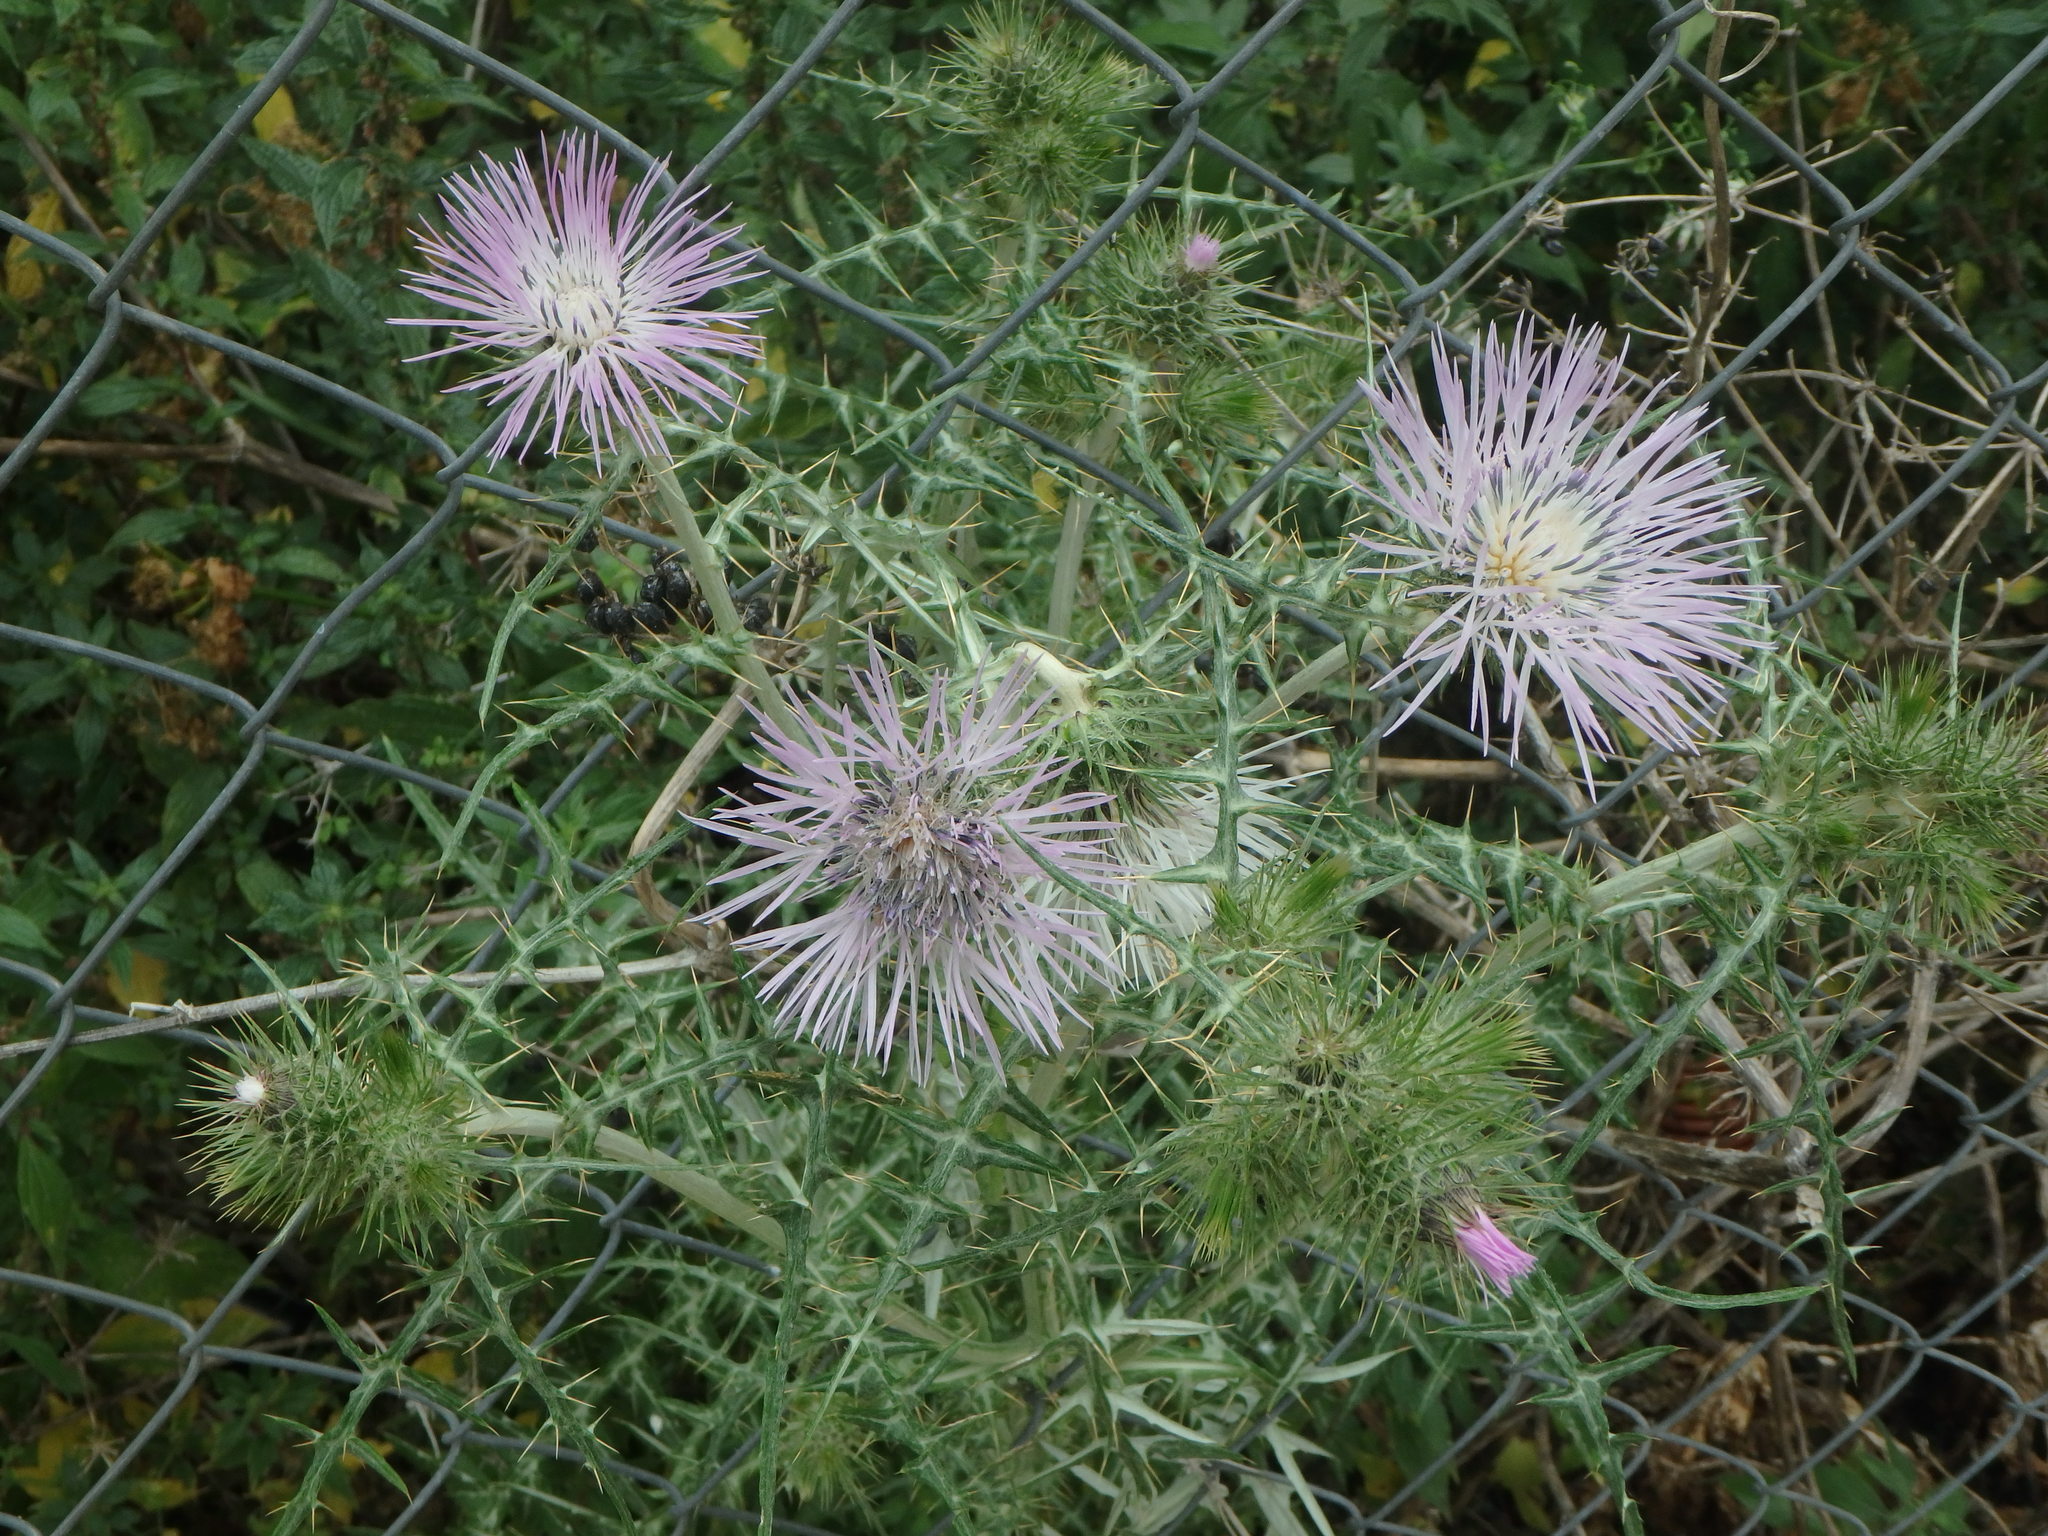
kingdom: Plantae
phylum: Tracheophyta
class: Magnoliopsida
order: Asterales
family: Asteraceae
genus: Galactites
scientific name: Galactites tomentosa
